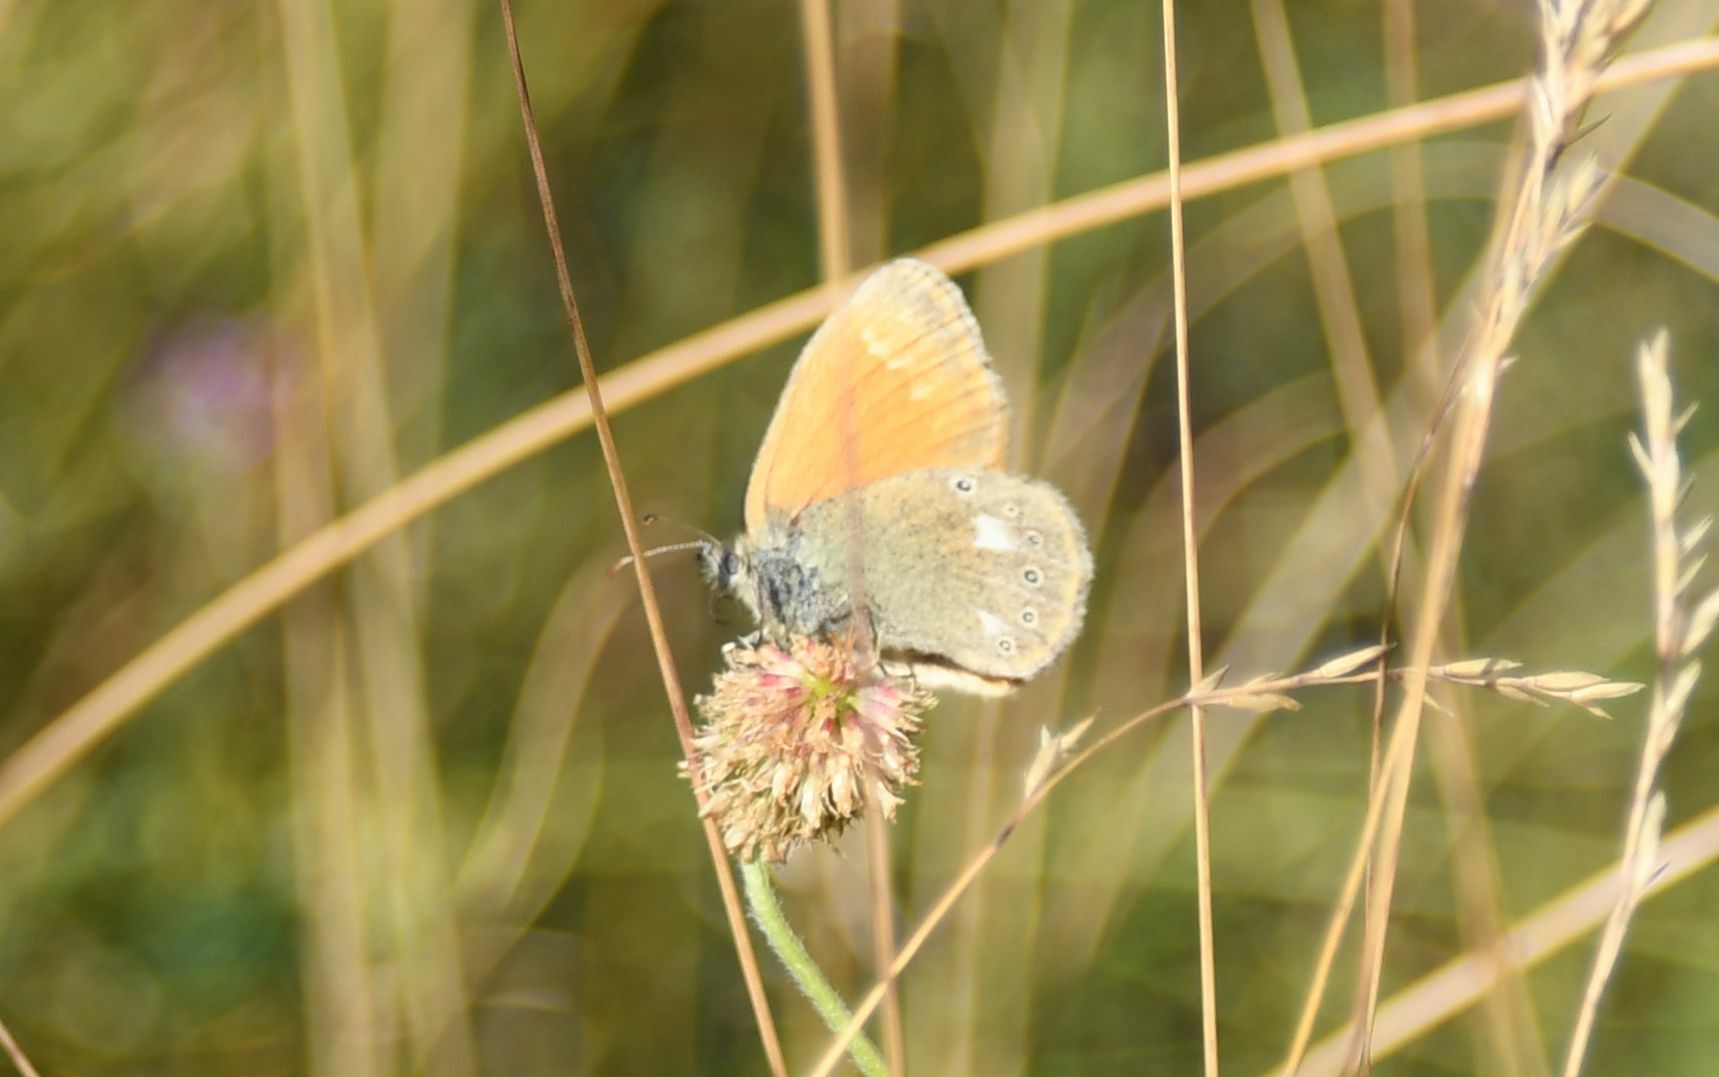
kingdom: Animalia
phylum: Arthropoda
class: Insecta
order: Lepidoptera
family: Nymphalidae
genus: Coenonympha
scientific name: Coenonympha iphis
